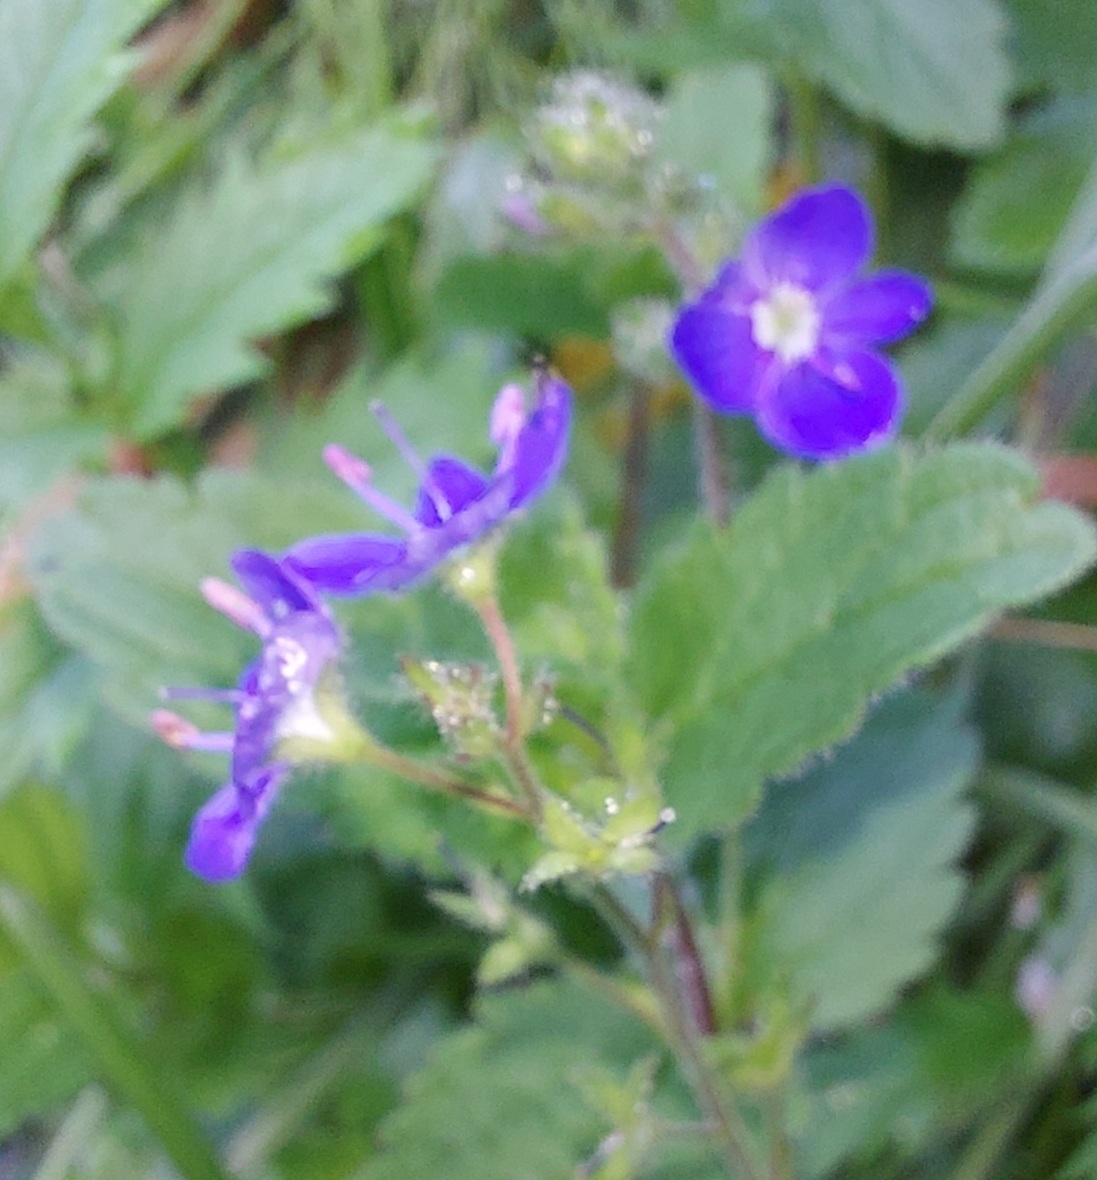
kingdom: Plantae
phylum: Tracheophyta
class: Magnoliopsida
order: Geraniales
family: Geraniaceae
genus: Geranium
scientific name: Geranium sylvaticum
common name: Wood crane's-bill
